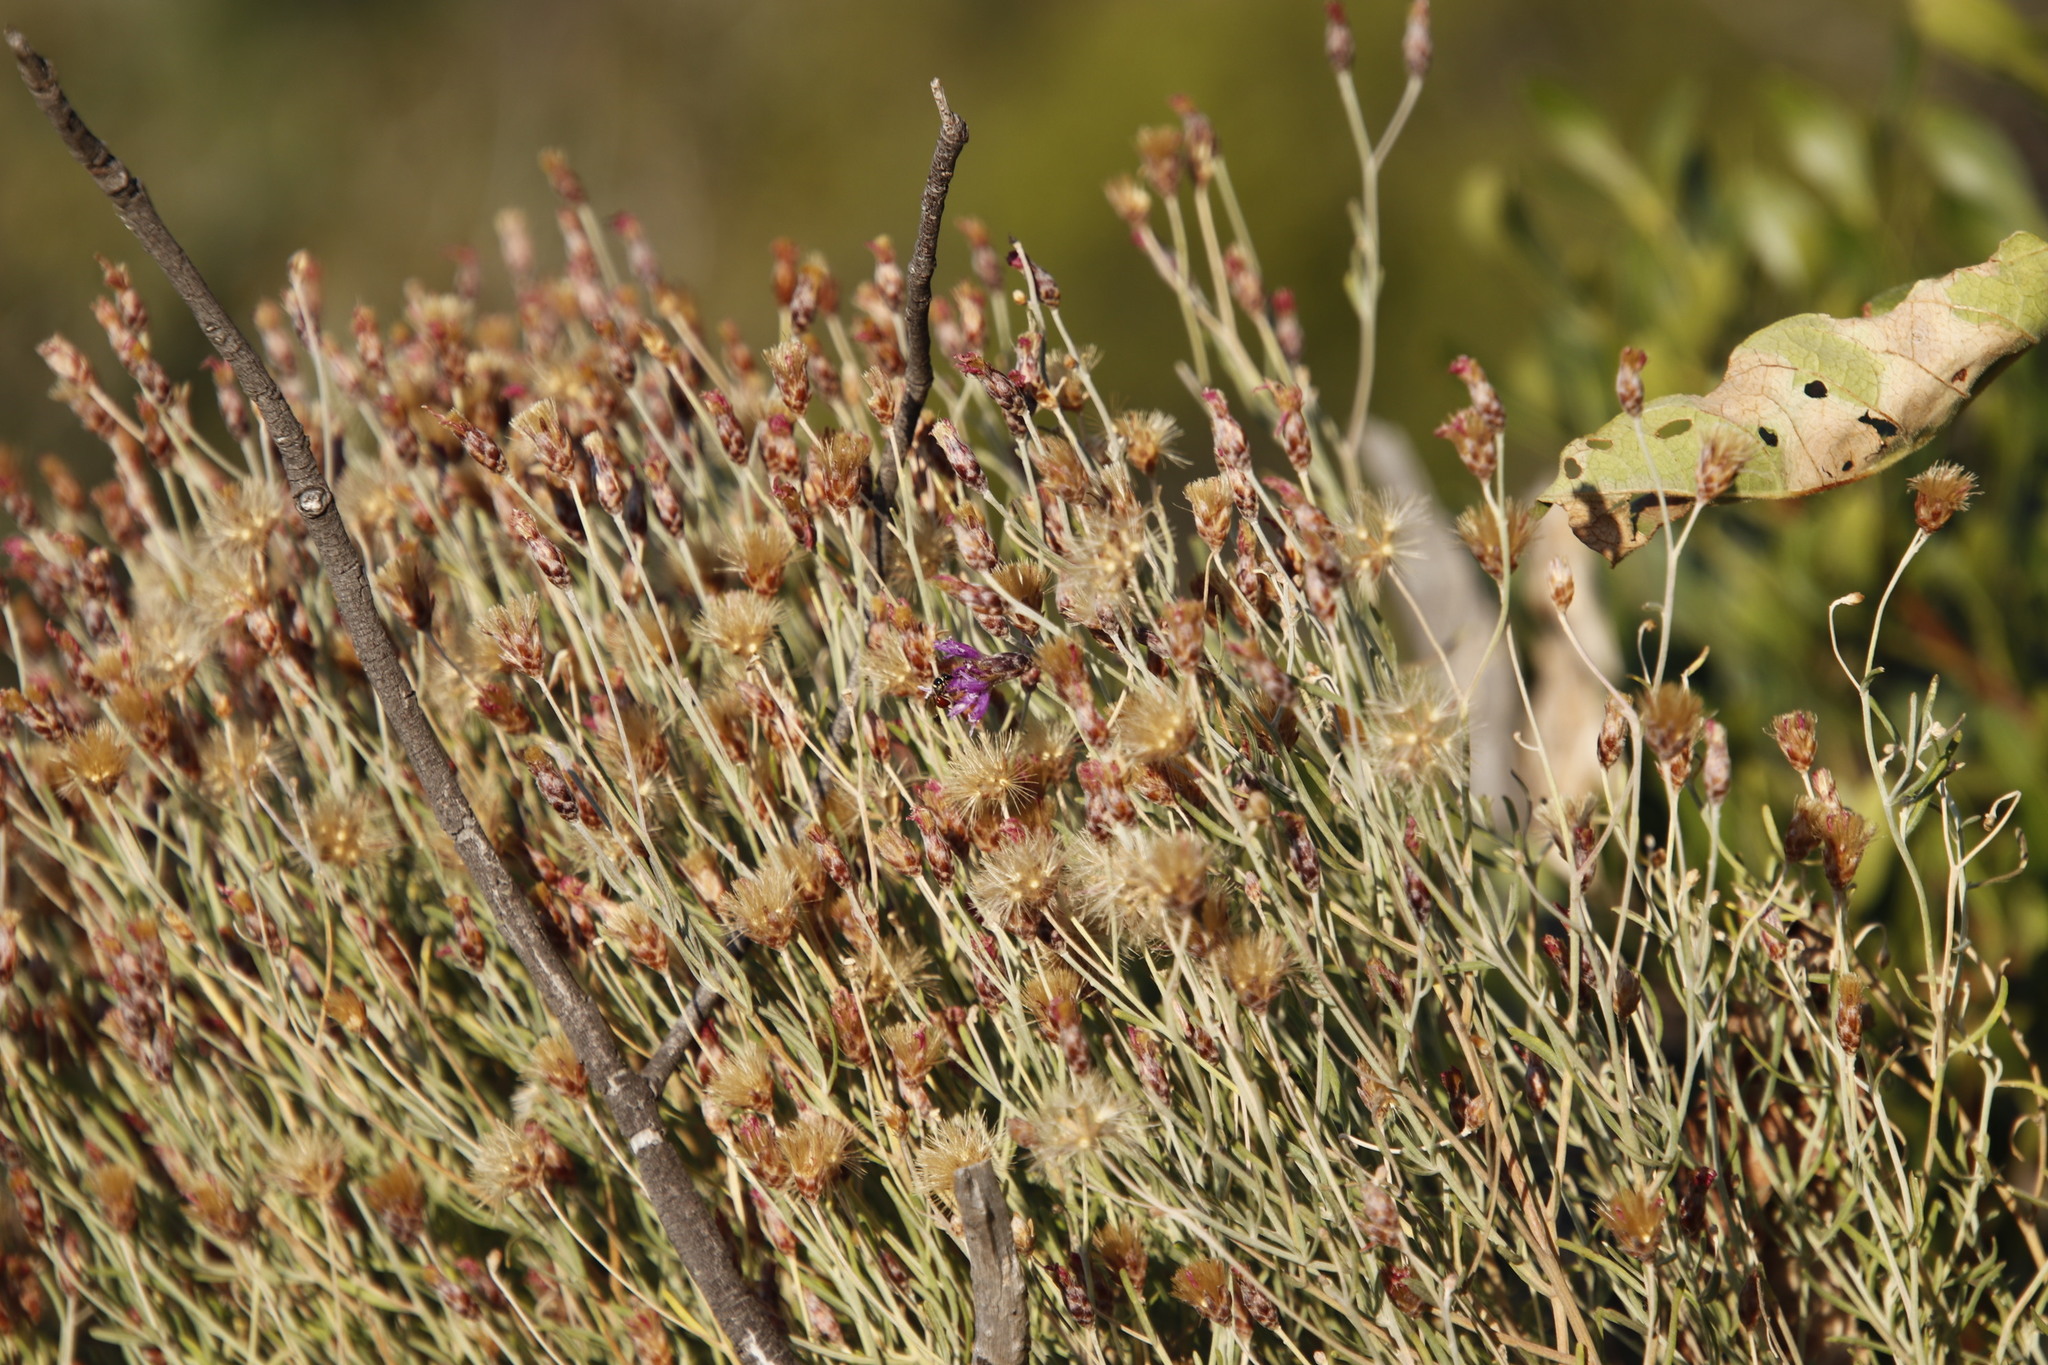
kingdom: Plantae
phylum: Tracheophyta
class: Magnoliopsida
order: Asterales
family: Asteraceae
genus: Oocephala
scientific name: Oocephala staehelinoides
